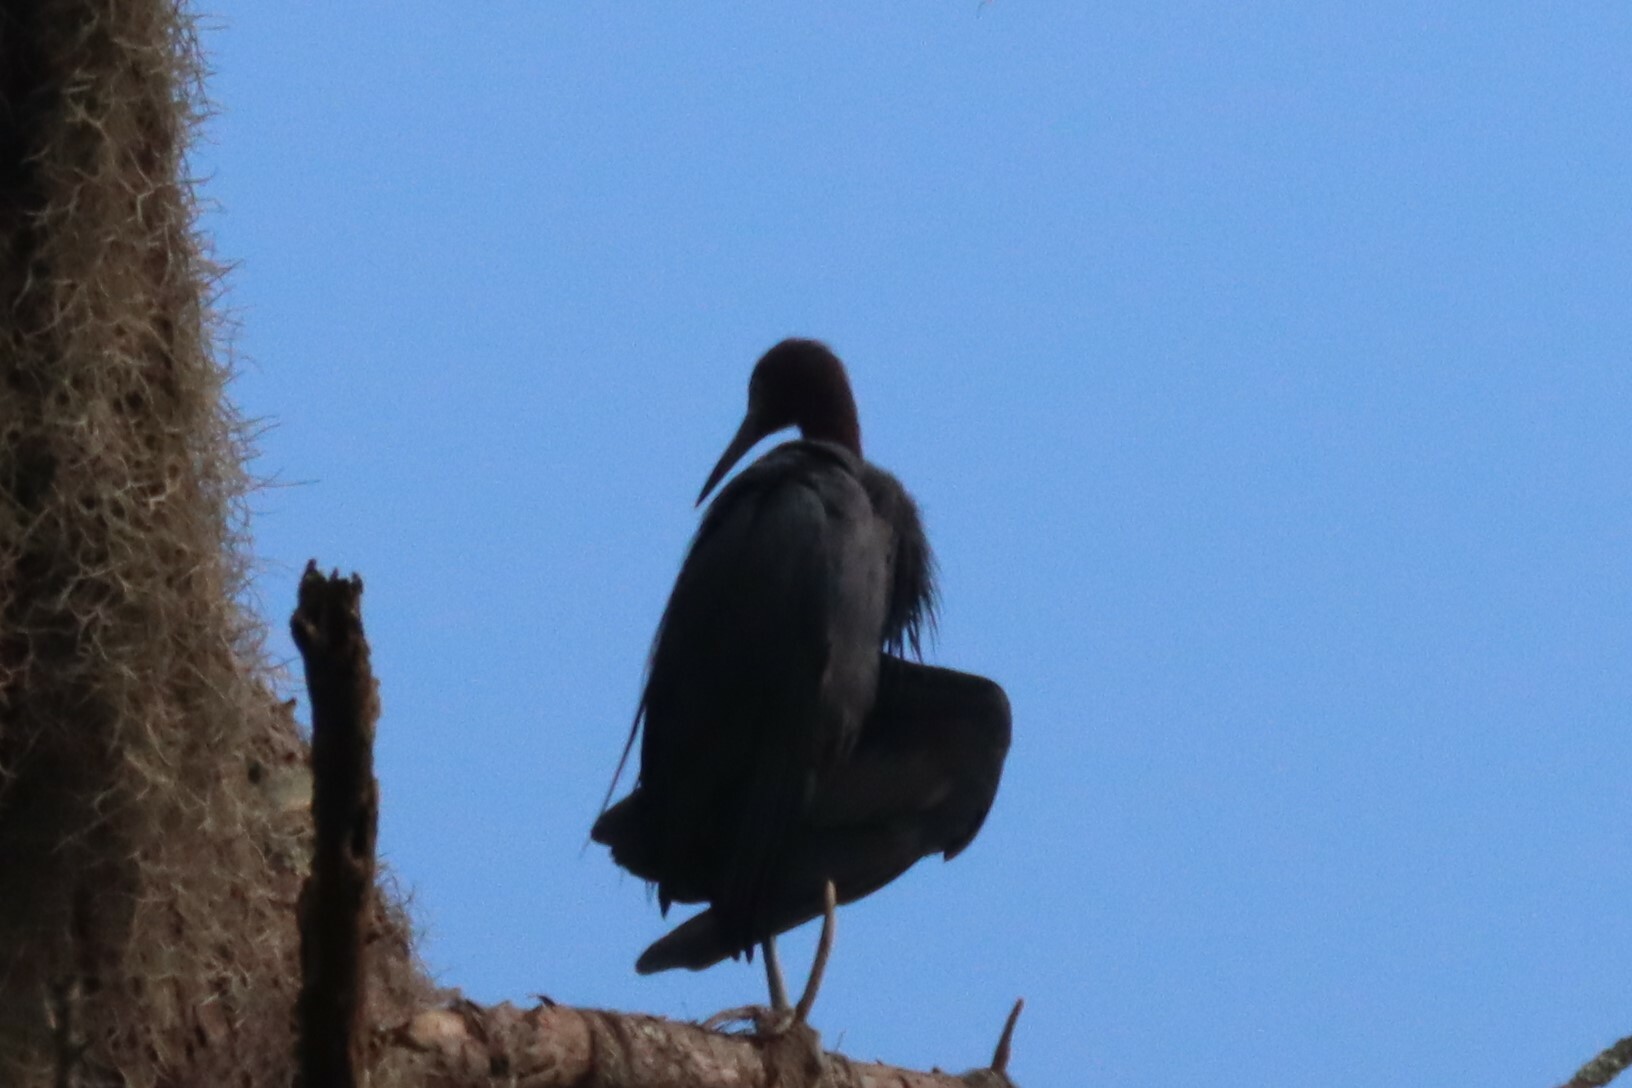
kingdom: Animalia
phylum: Chordata
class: Aves
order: Pelecaniformes
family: Ardeidae
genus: Egretta
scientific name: Egretta caerulea
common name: Little blue heron
